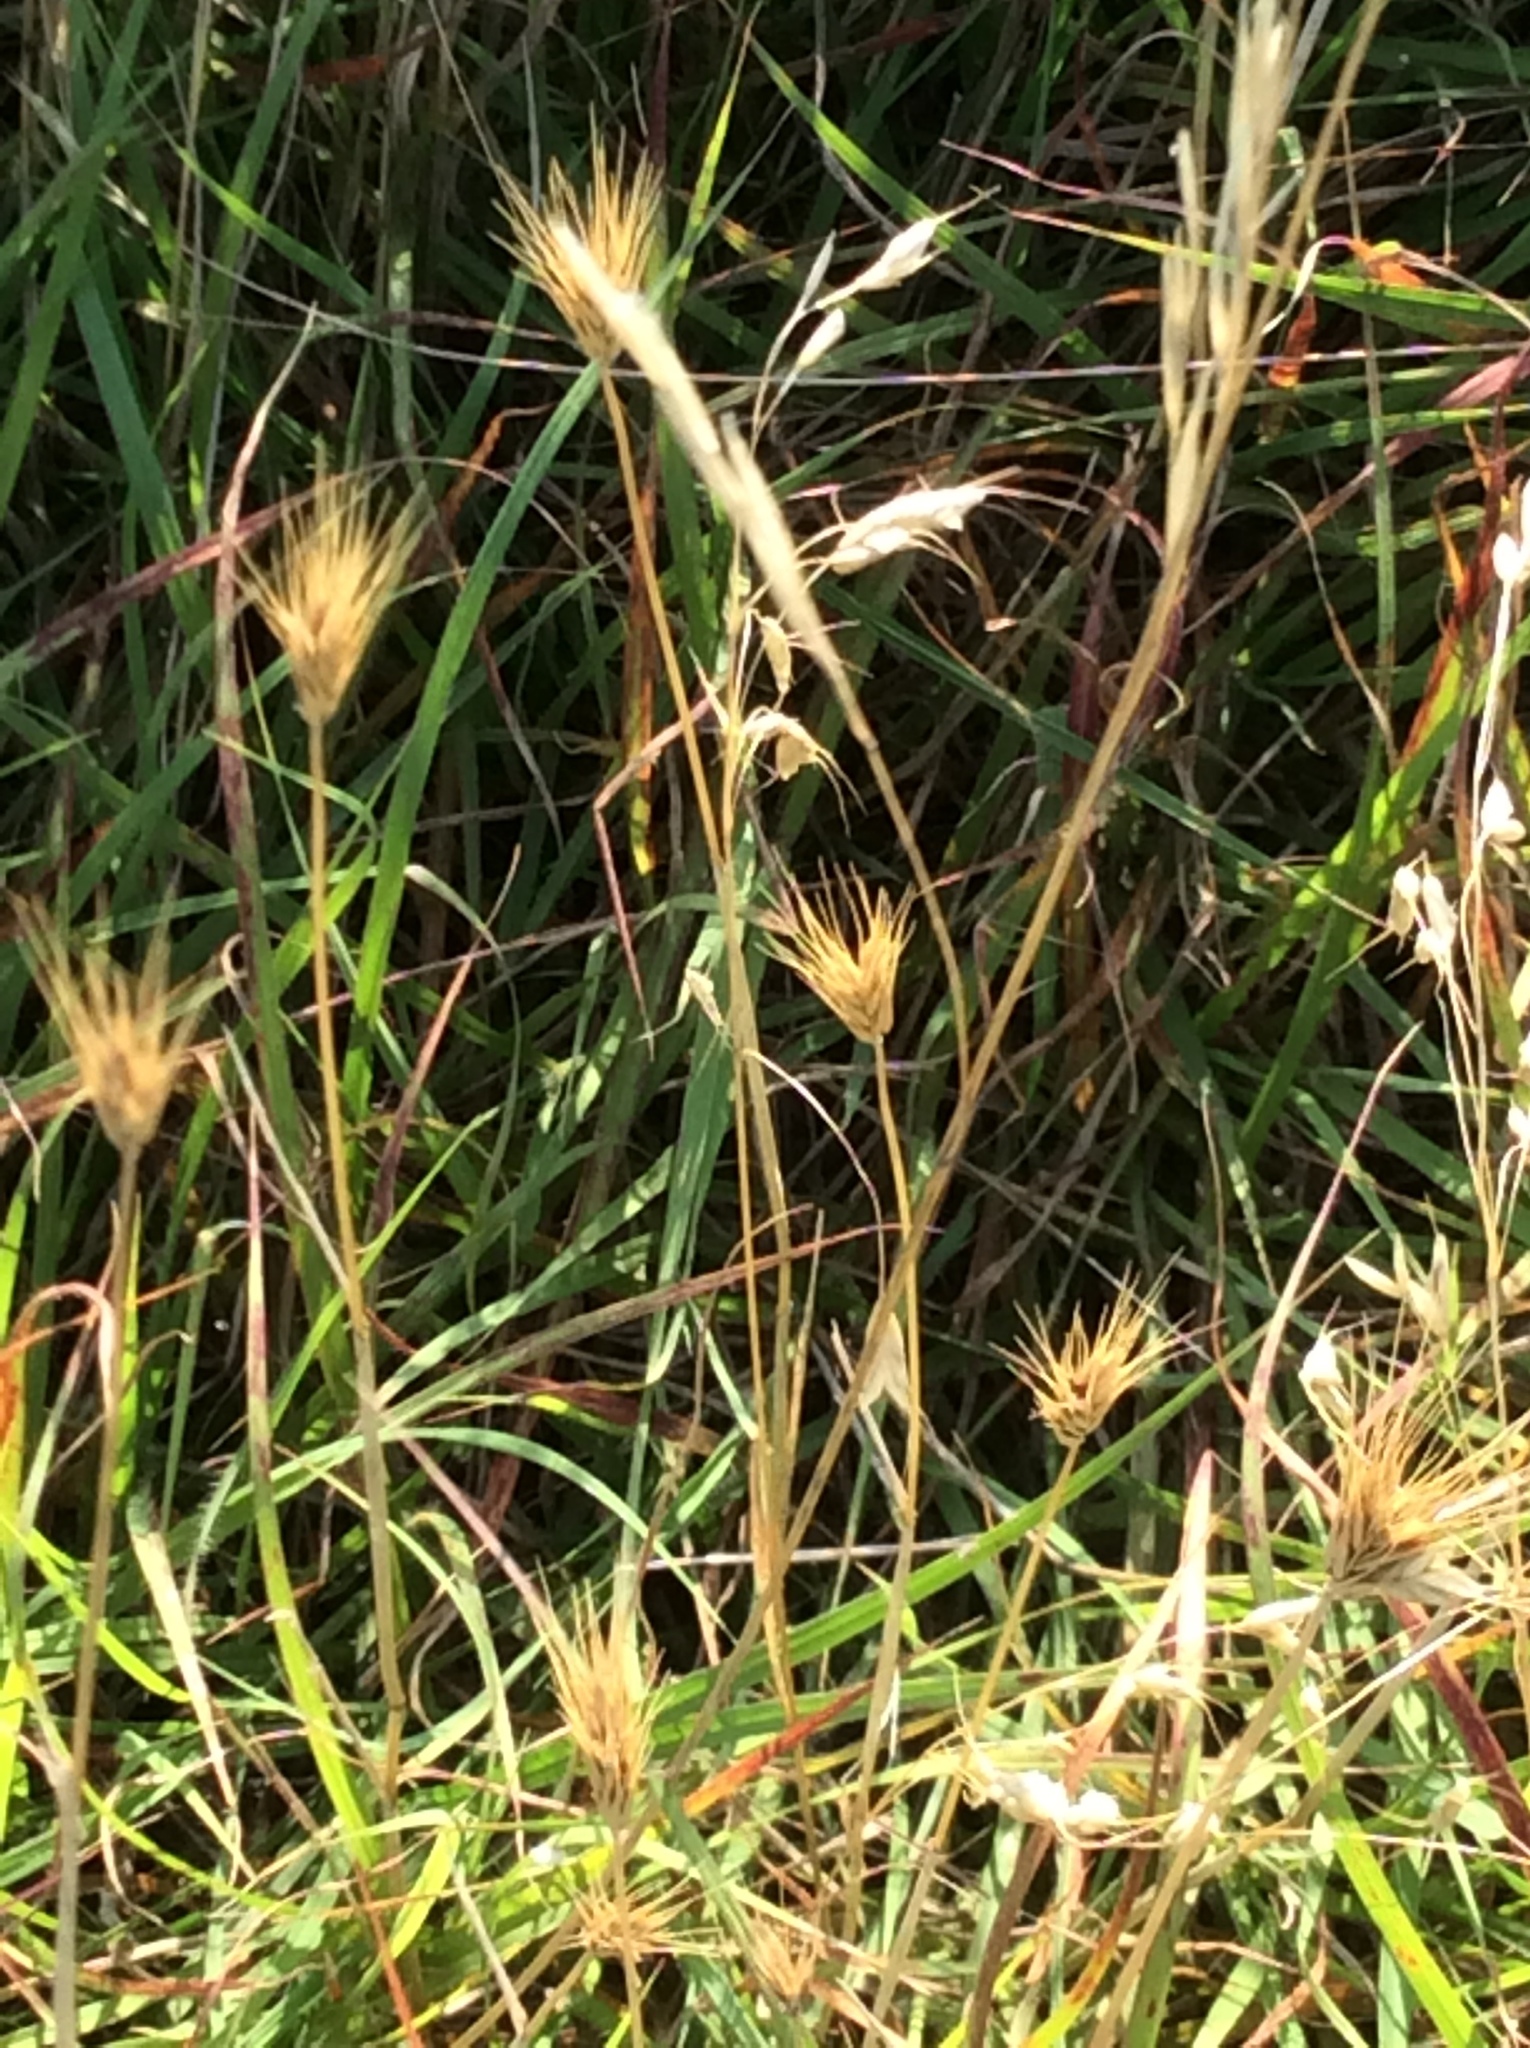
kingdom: Plantae
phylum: Tracheophyta
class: Liliopsida
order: Poales
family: Poaceae
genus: Hordeum
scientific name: Hordeum pusillum
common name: Little barley
